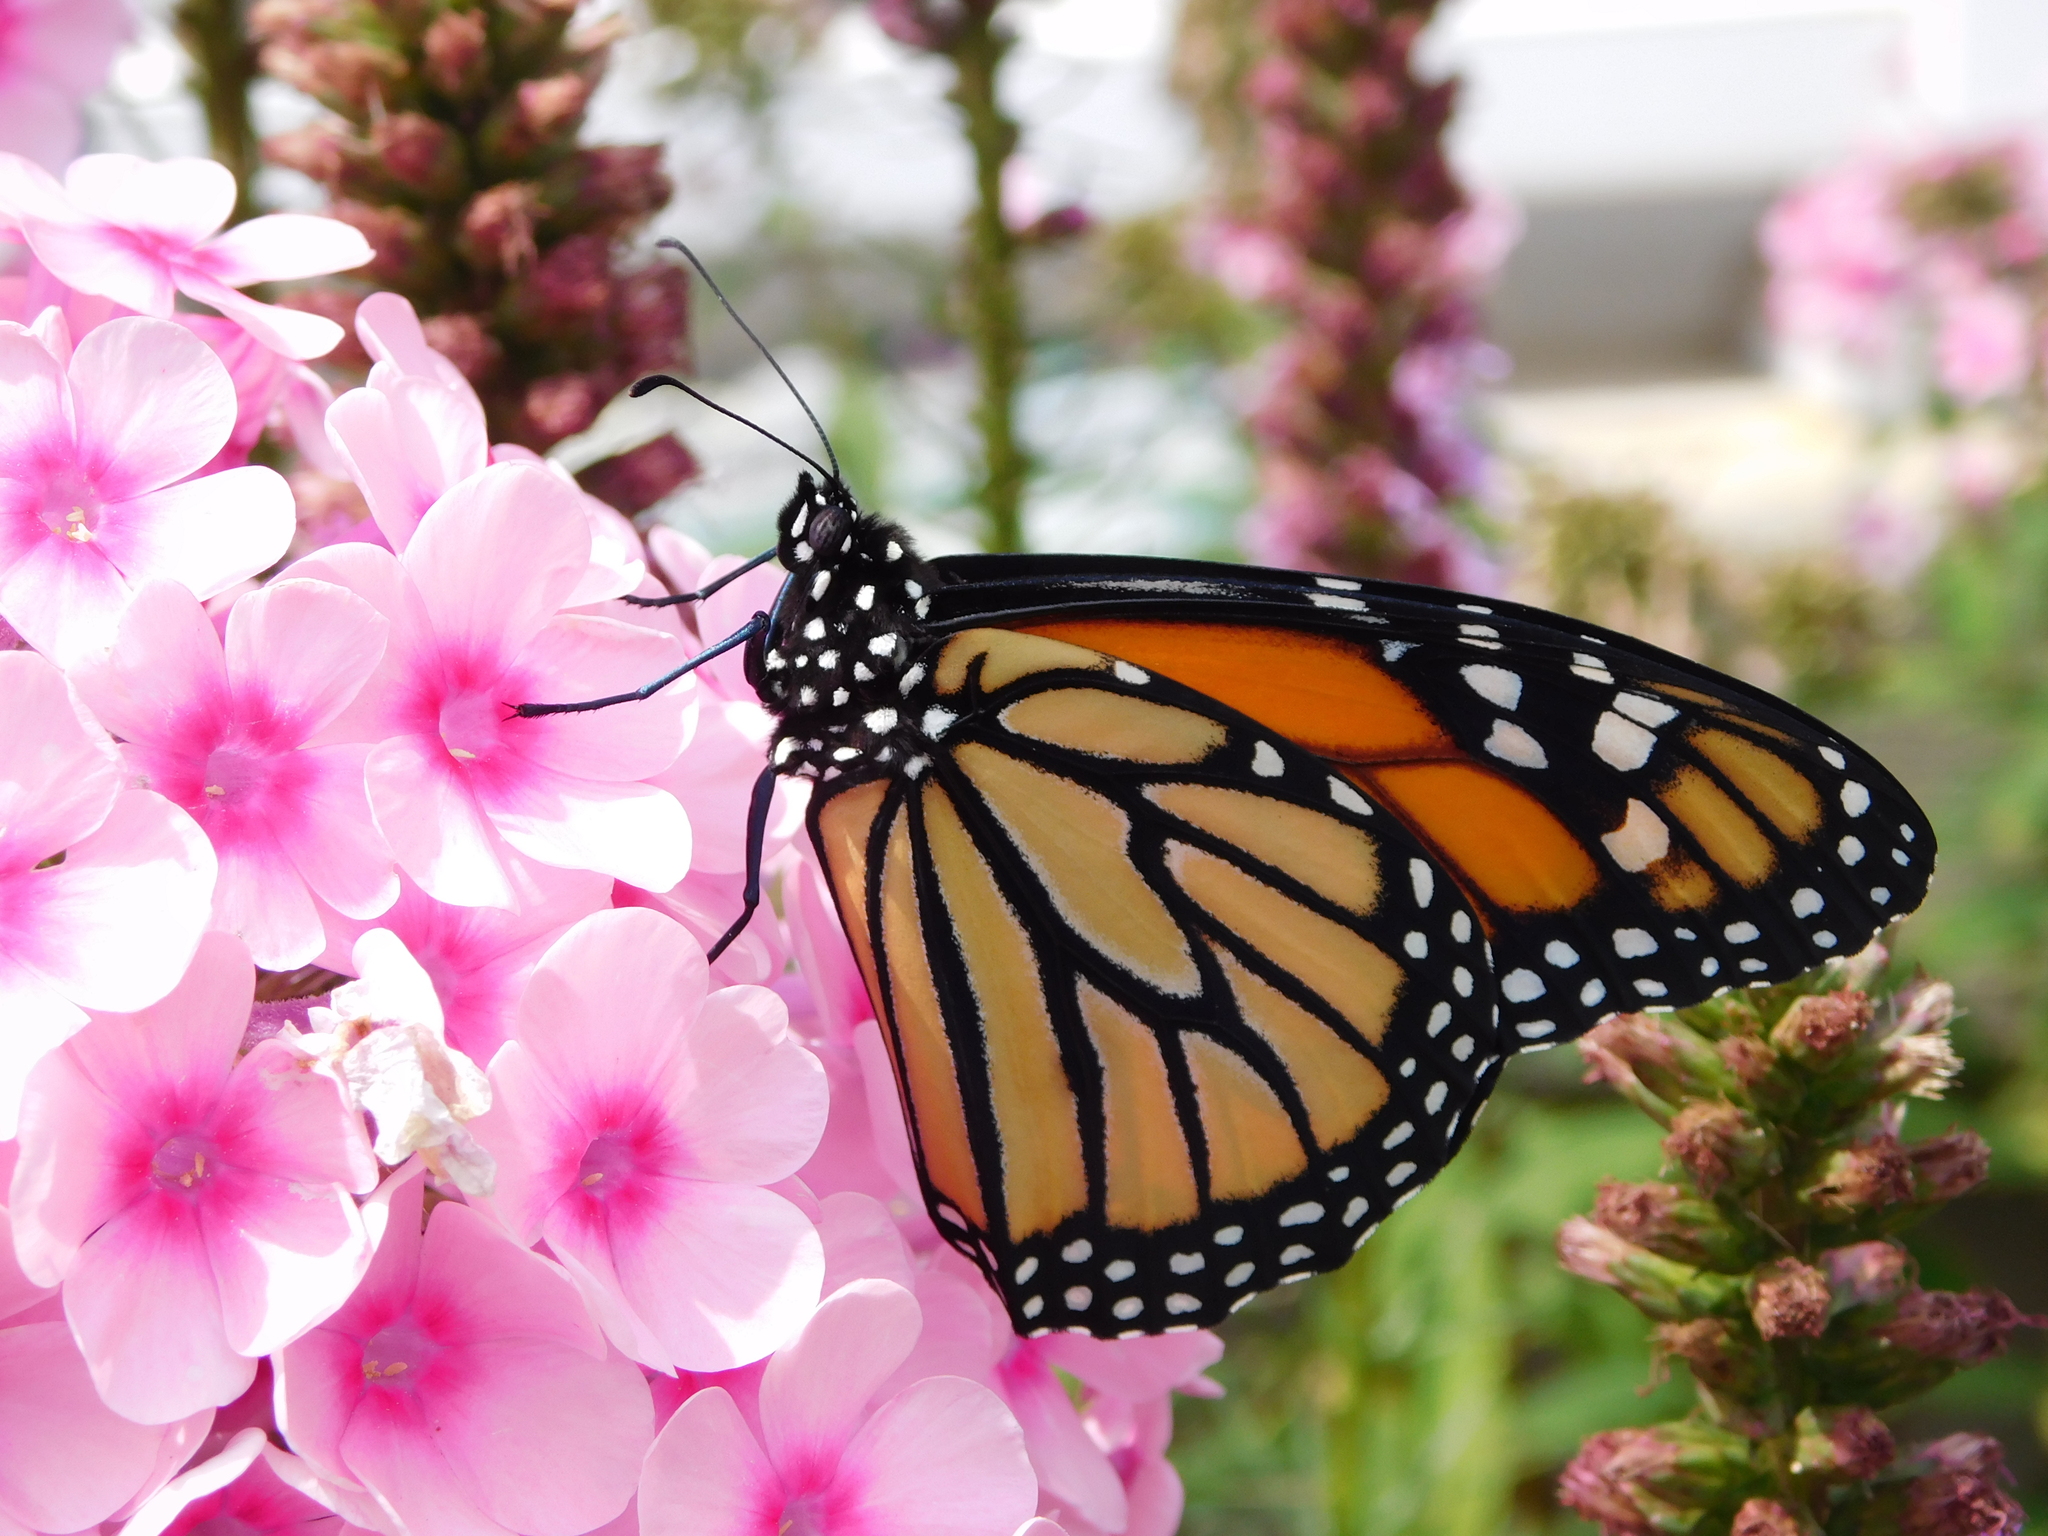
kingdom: Animalia
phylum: Arthropoda
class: Insecta
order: Lepidoptera
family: Nymphalidae
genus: Danaus
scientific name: Danaus plexippus
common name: Monarch
